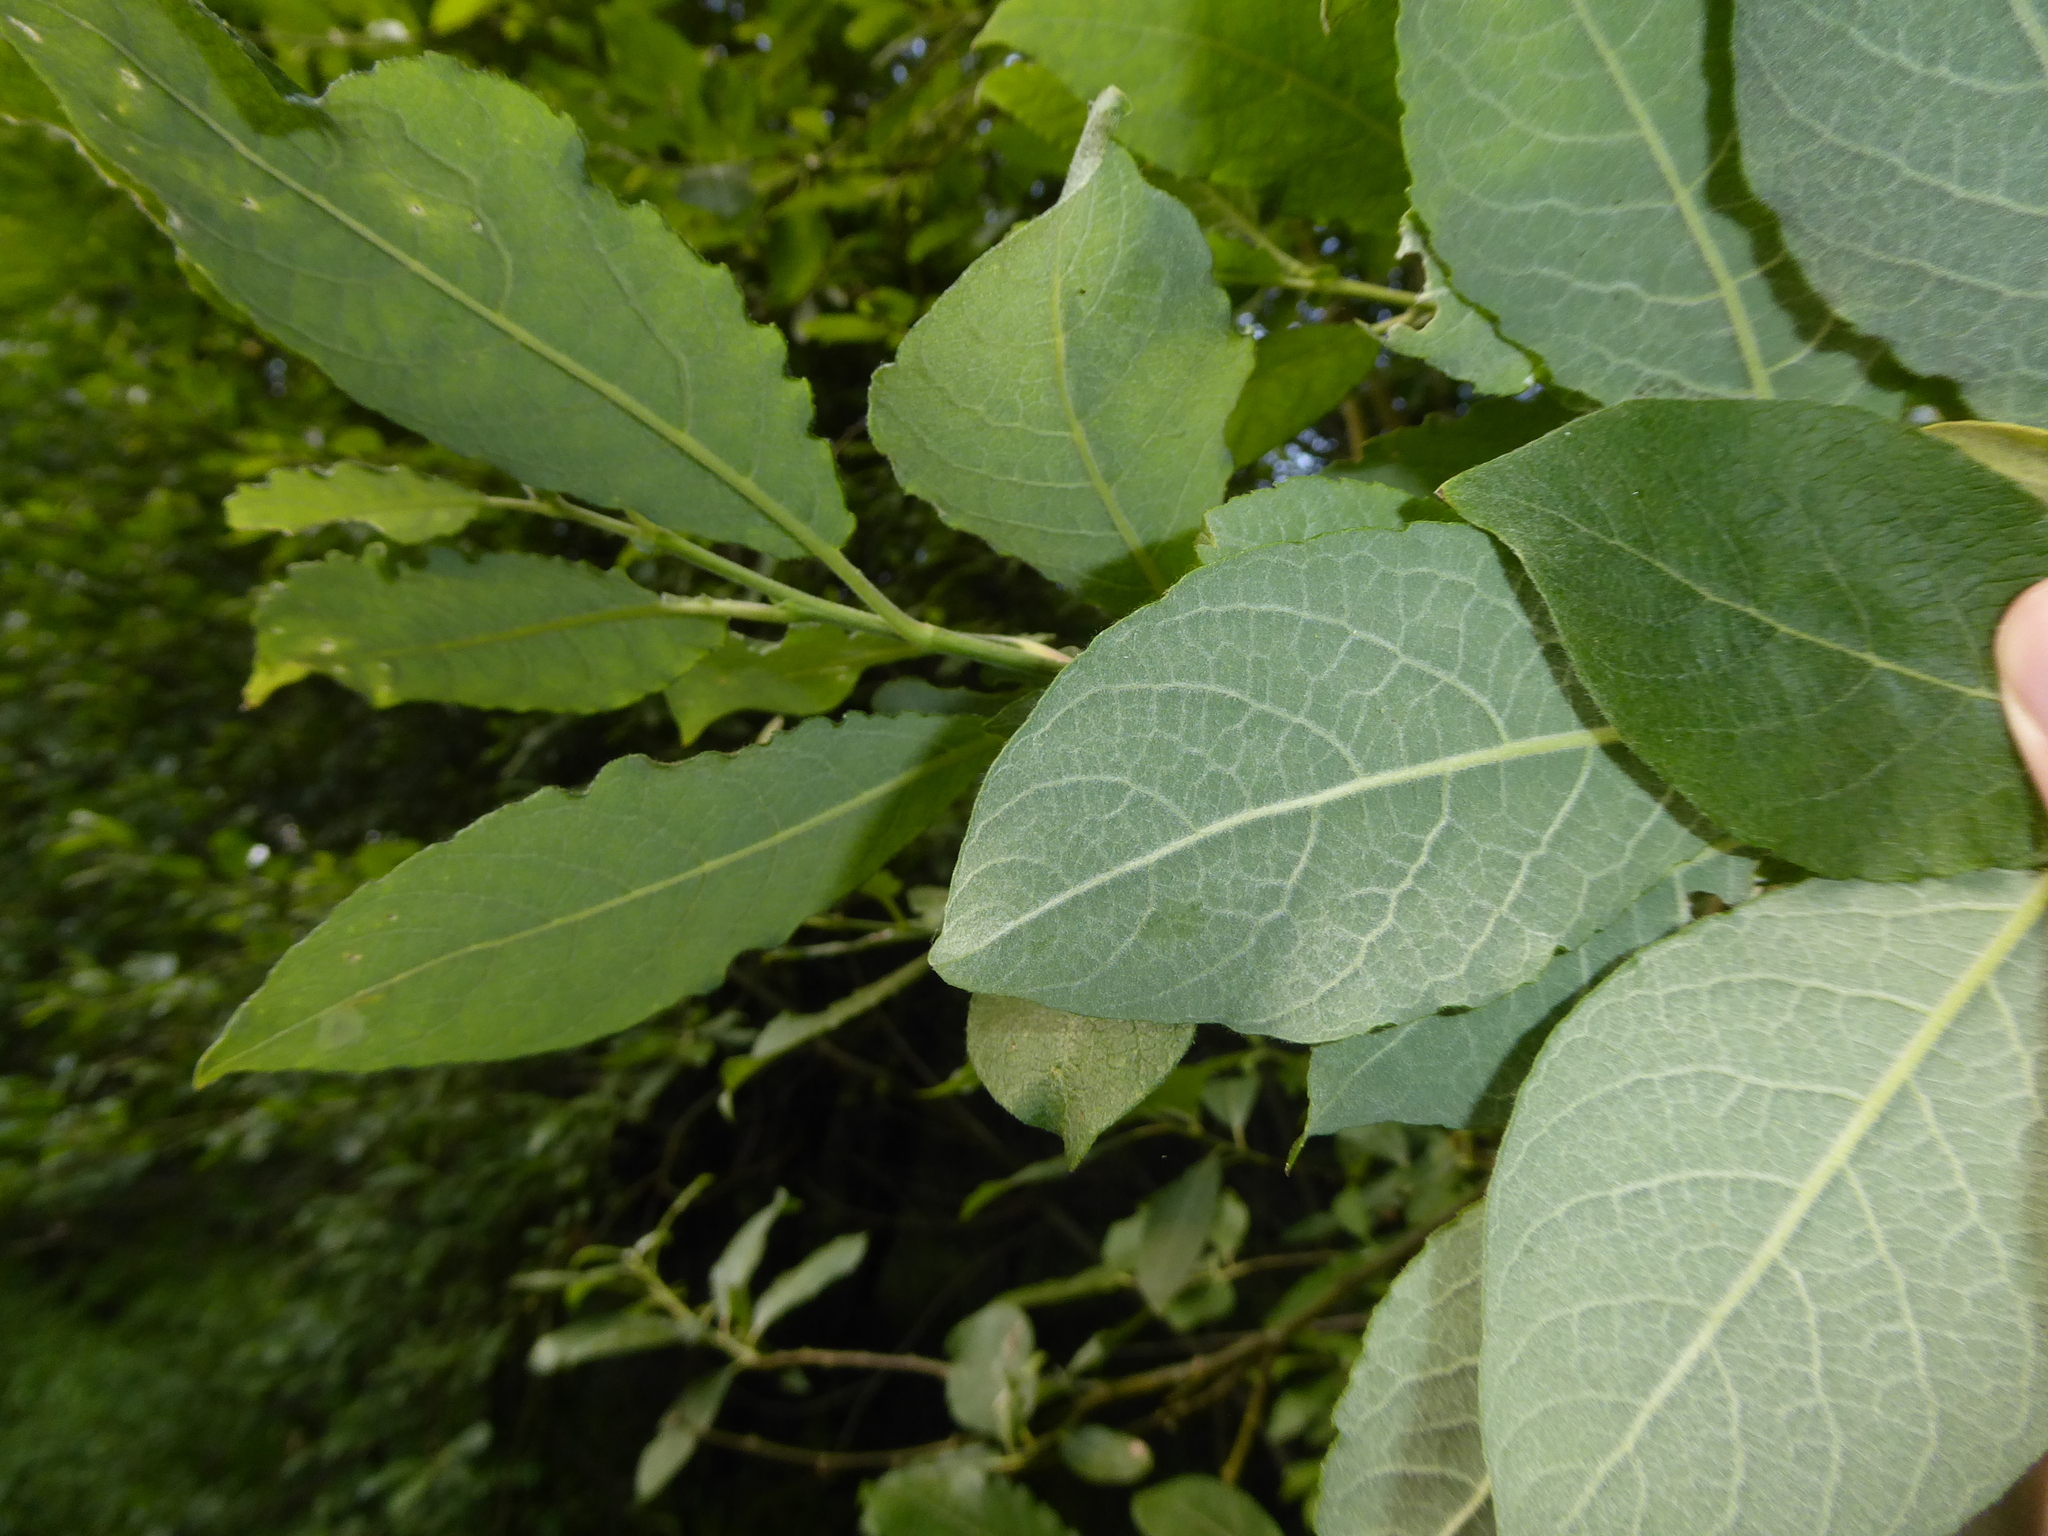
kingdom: Plantae
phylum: Tracheophyta
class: Magnoliopsida
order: Malpighiales
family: Salicaceae
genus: Salix
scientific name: Salix caprea
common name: Goat willow
